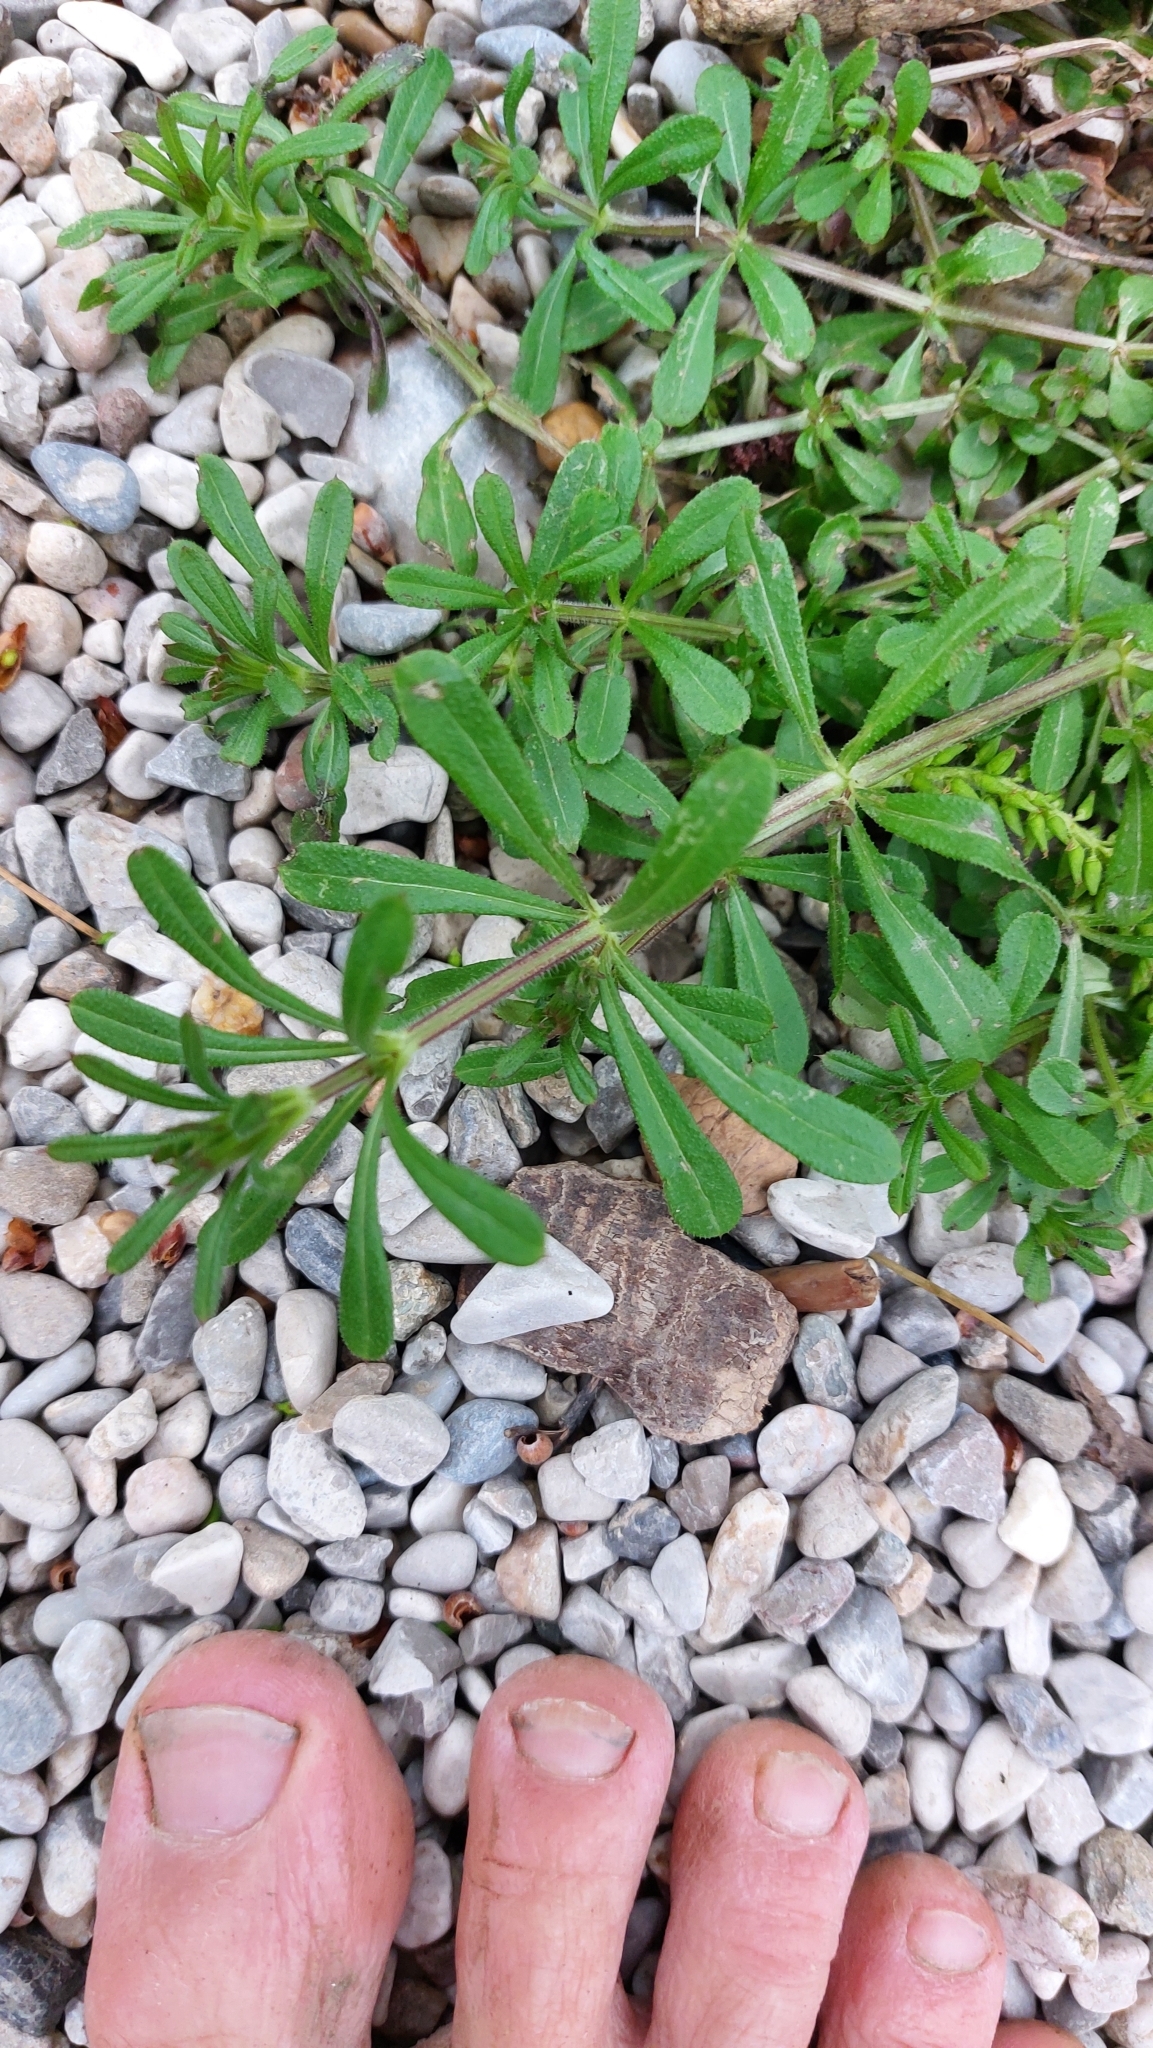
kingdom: Plantae
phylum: Tracheophyta
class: Magnoliopsida
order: Gentianales
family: Rubiaceae
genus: Galium
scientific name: Galium aparine
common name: Cleavers
